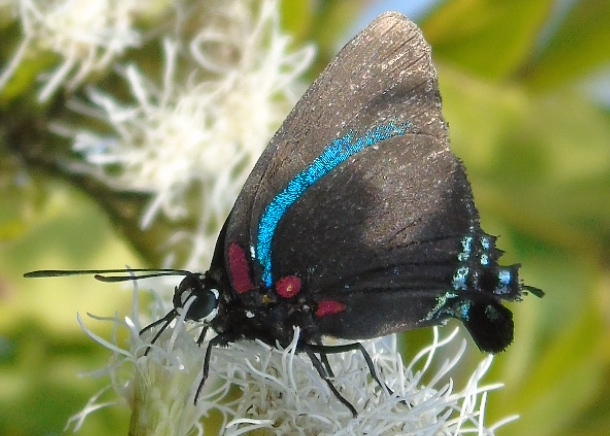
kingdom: Animalia
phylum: Arthropoda
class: Insecta
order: Lepidoptera
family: Lycaenidae
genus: Atlides
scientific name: Atlides
